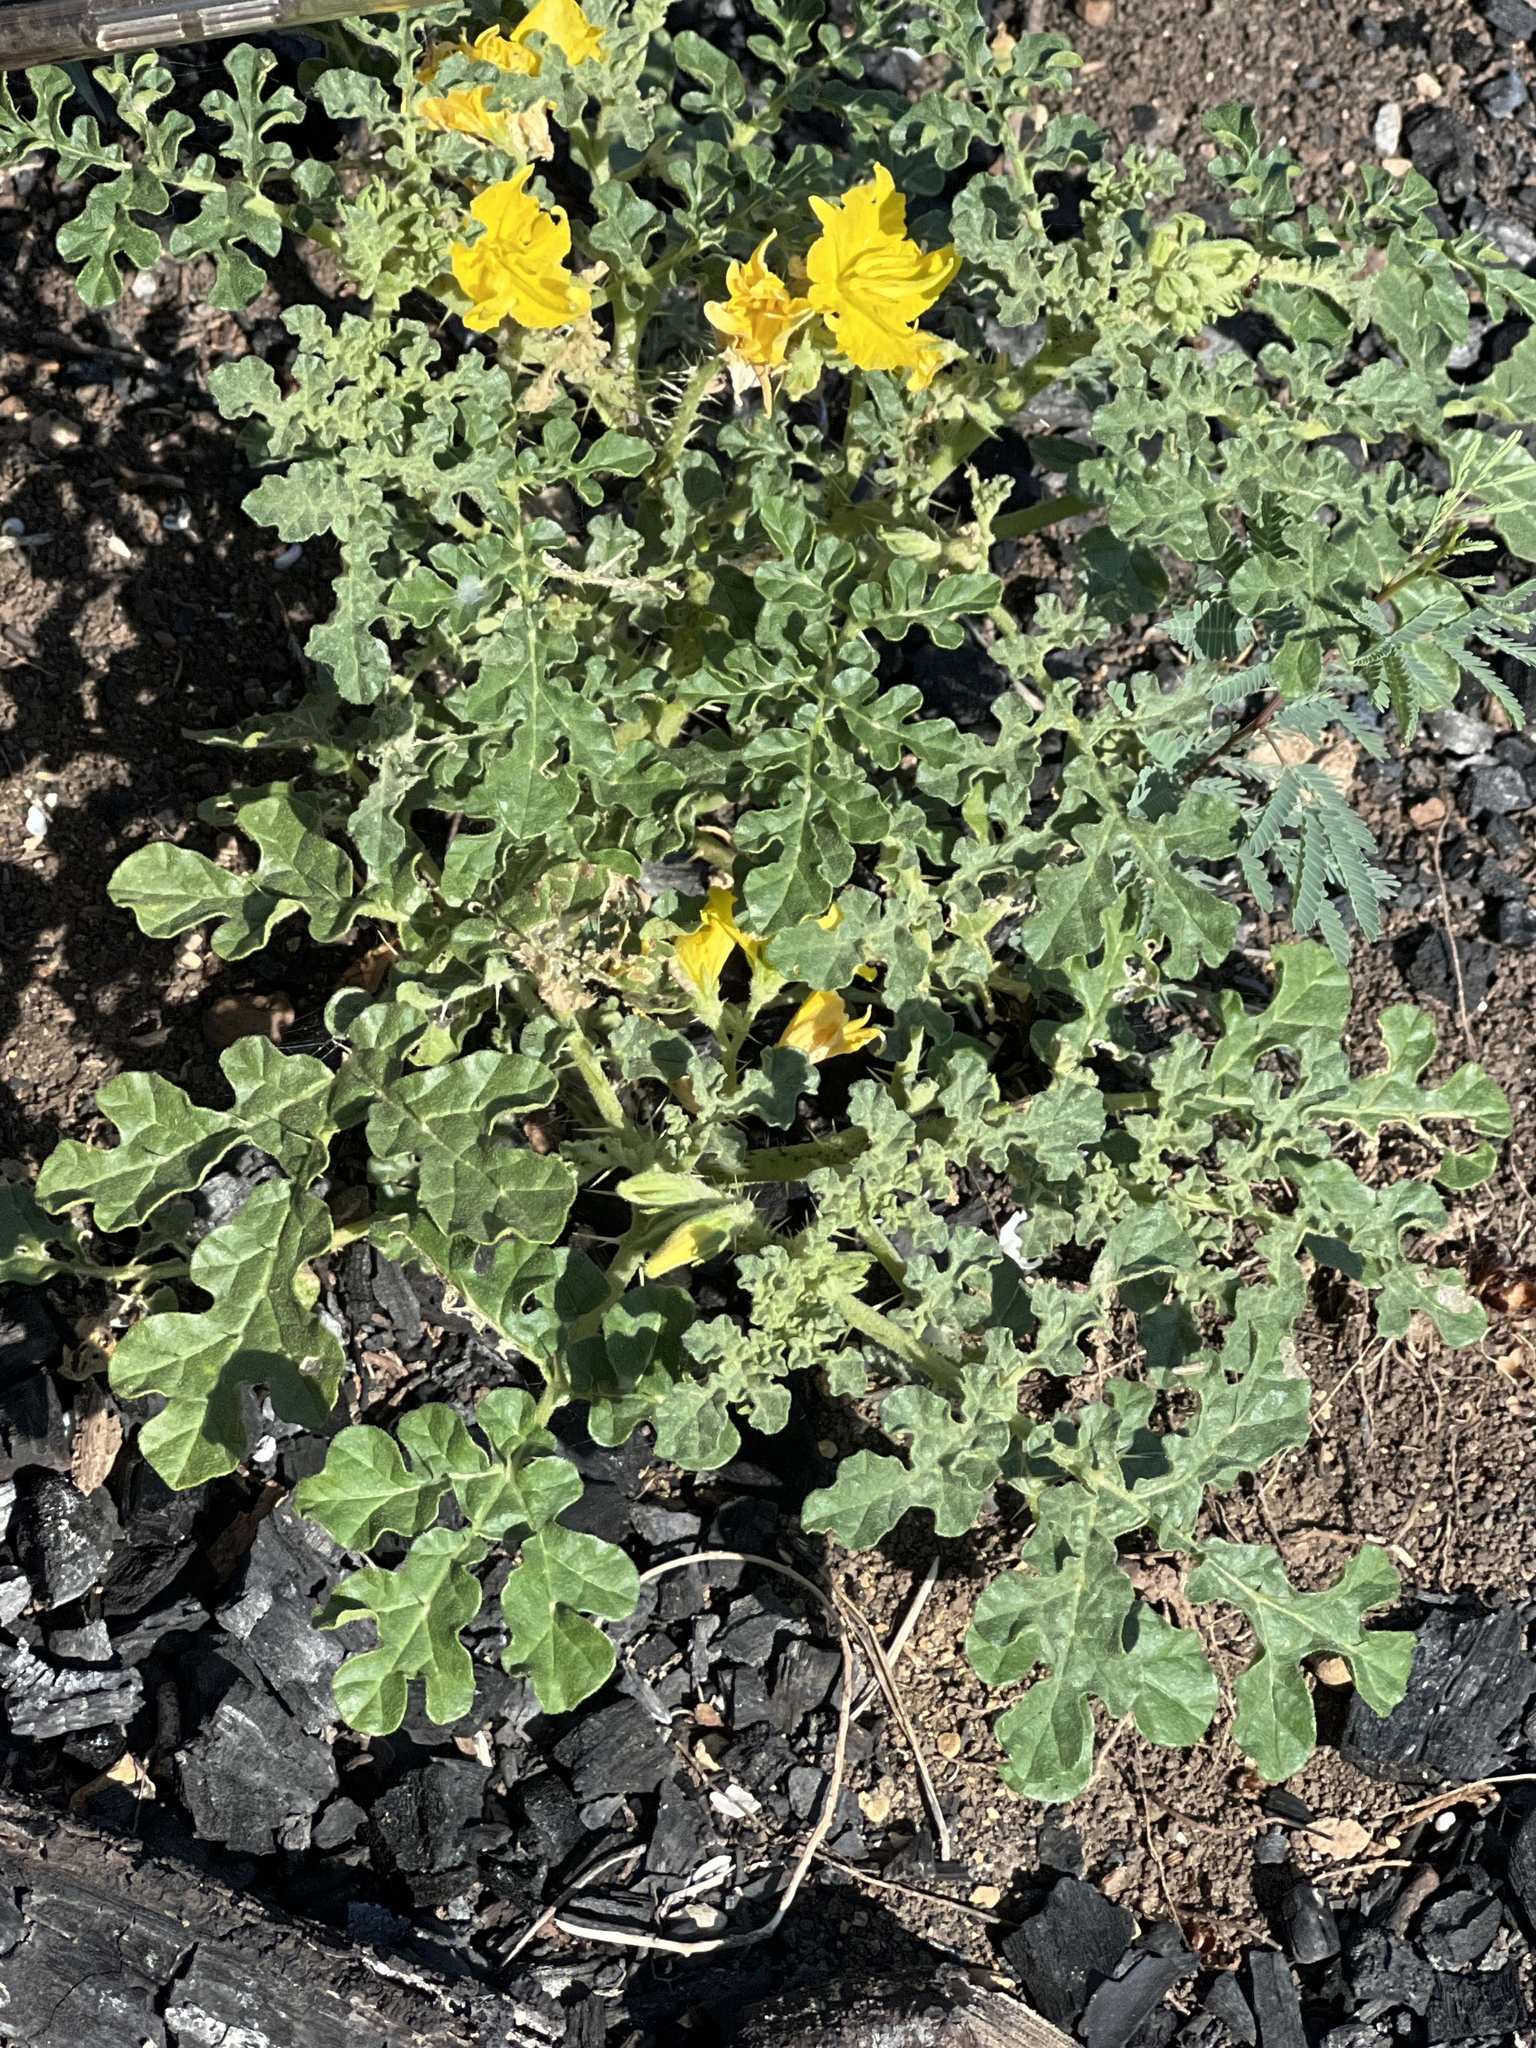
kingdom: Plantae
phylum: Tracheophyta
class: Magnoliopsida
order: Solanales
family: Solanaceae
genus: Solanum
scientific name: Solanum angustifolium
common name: Buffalobur nightshade
